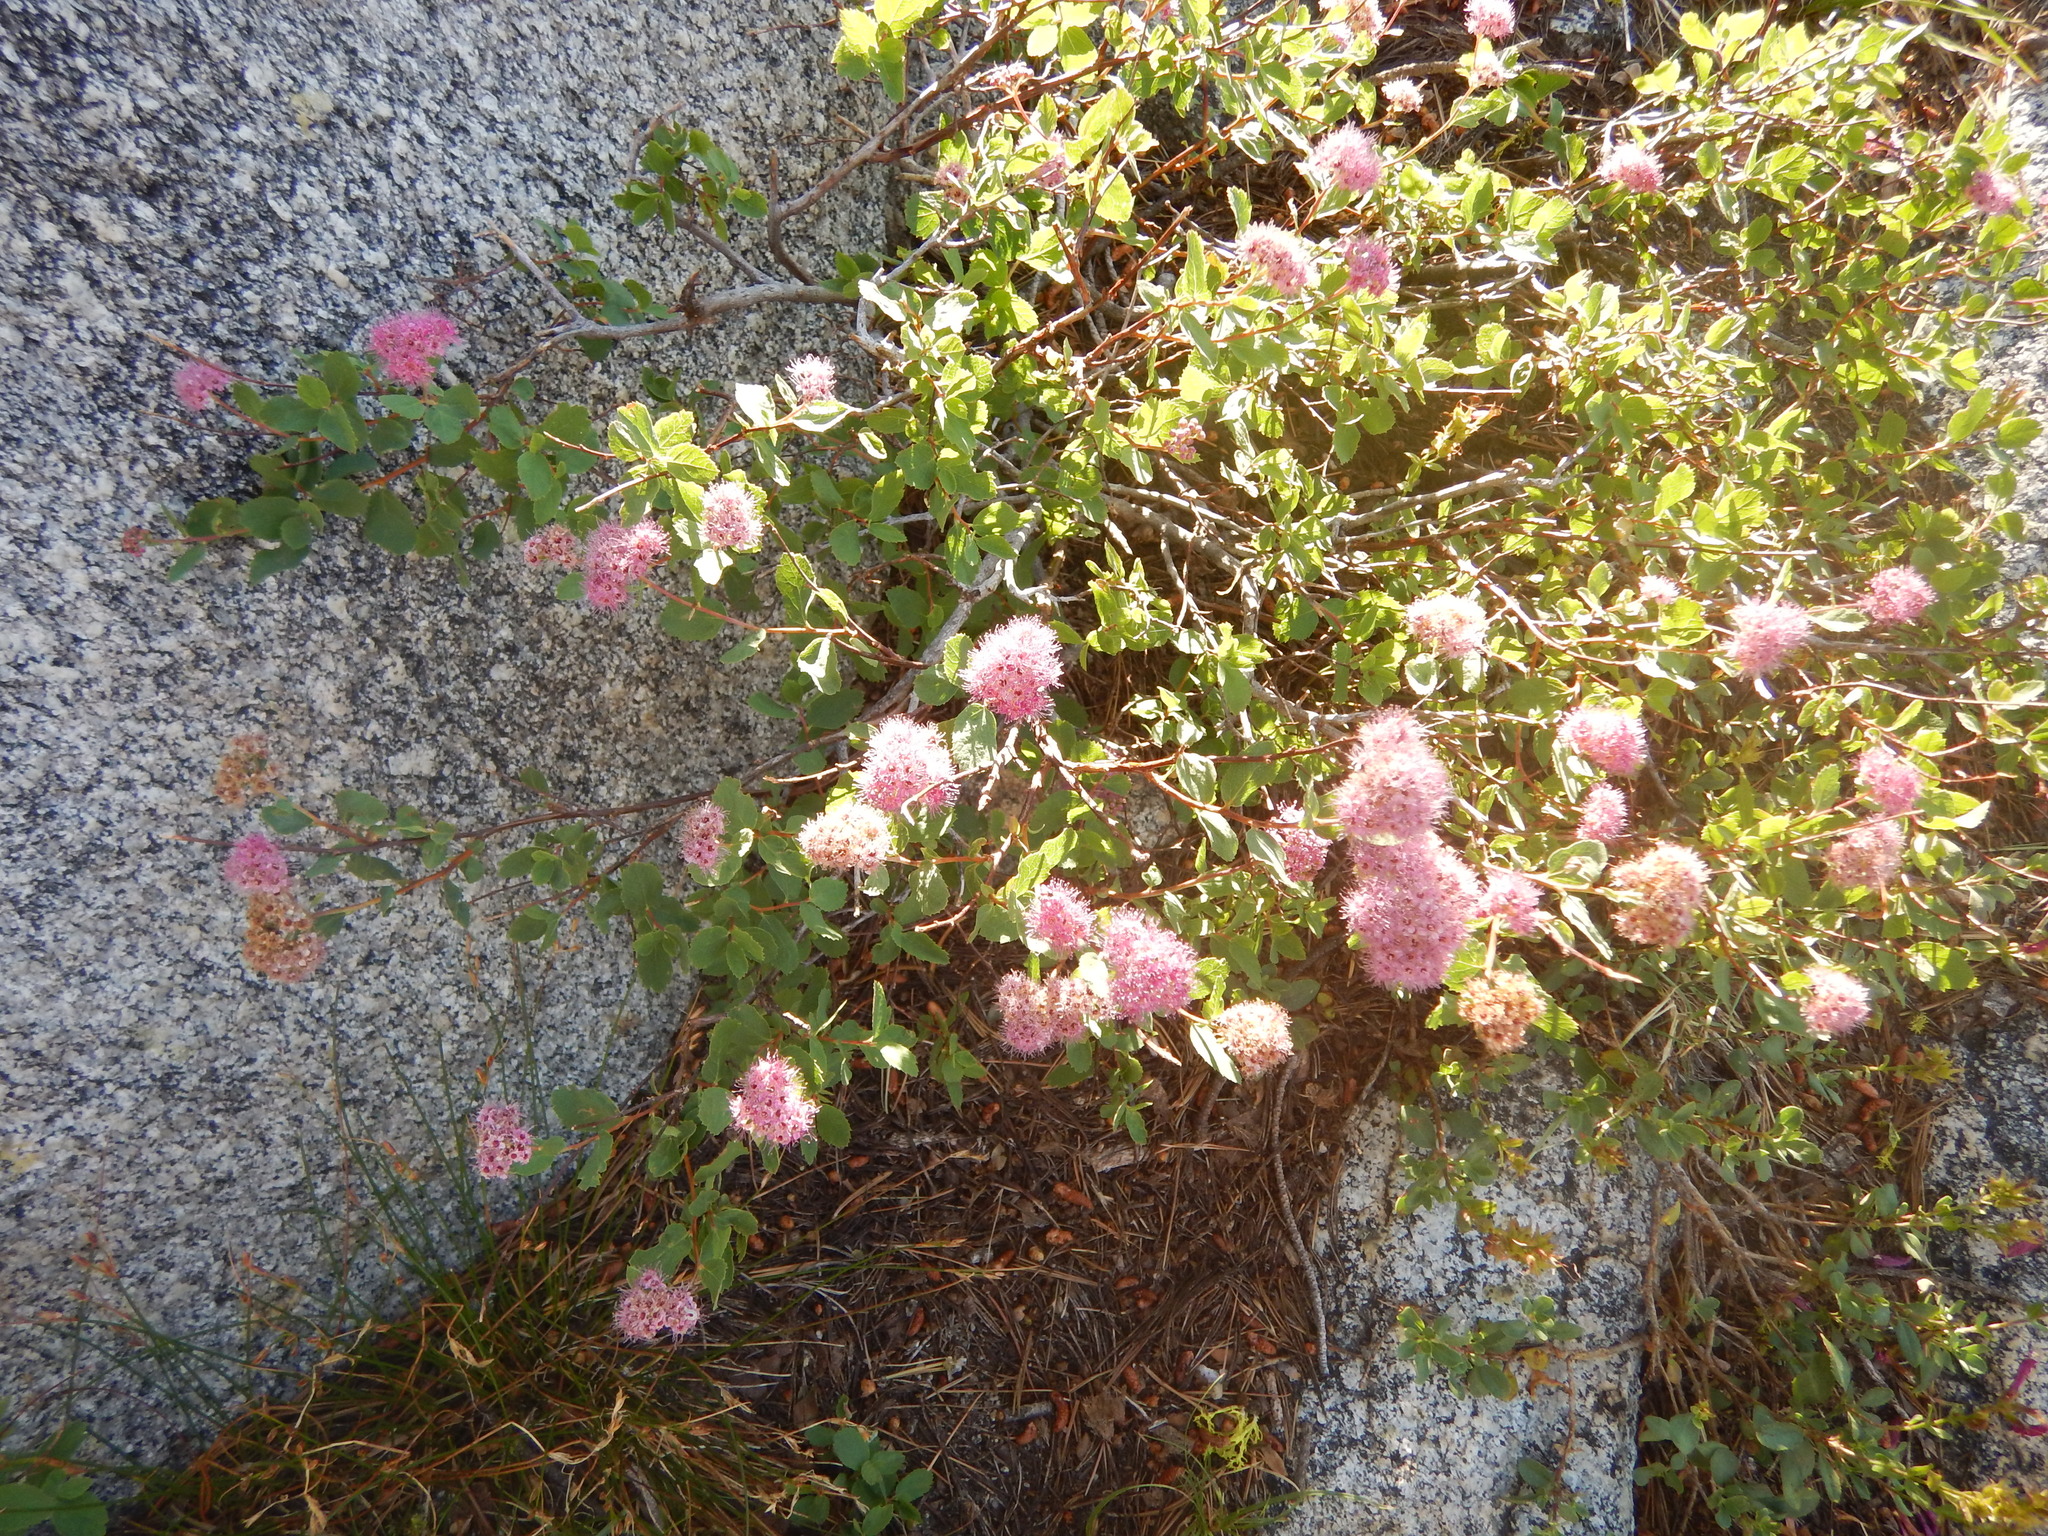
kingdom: Plantae
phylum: Tracheophyta
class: Magnoliopsida
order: Rosales
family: Rosaceae
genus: Spiraea
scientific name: Spiraea splendens
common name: Subalpine meadowsweet
